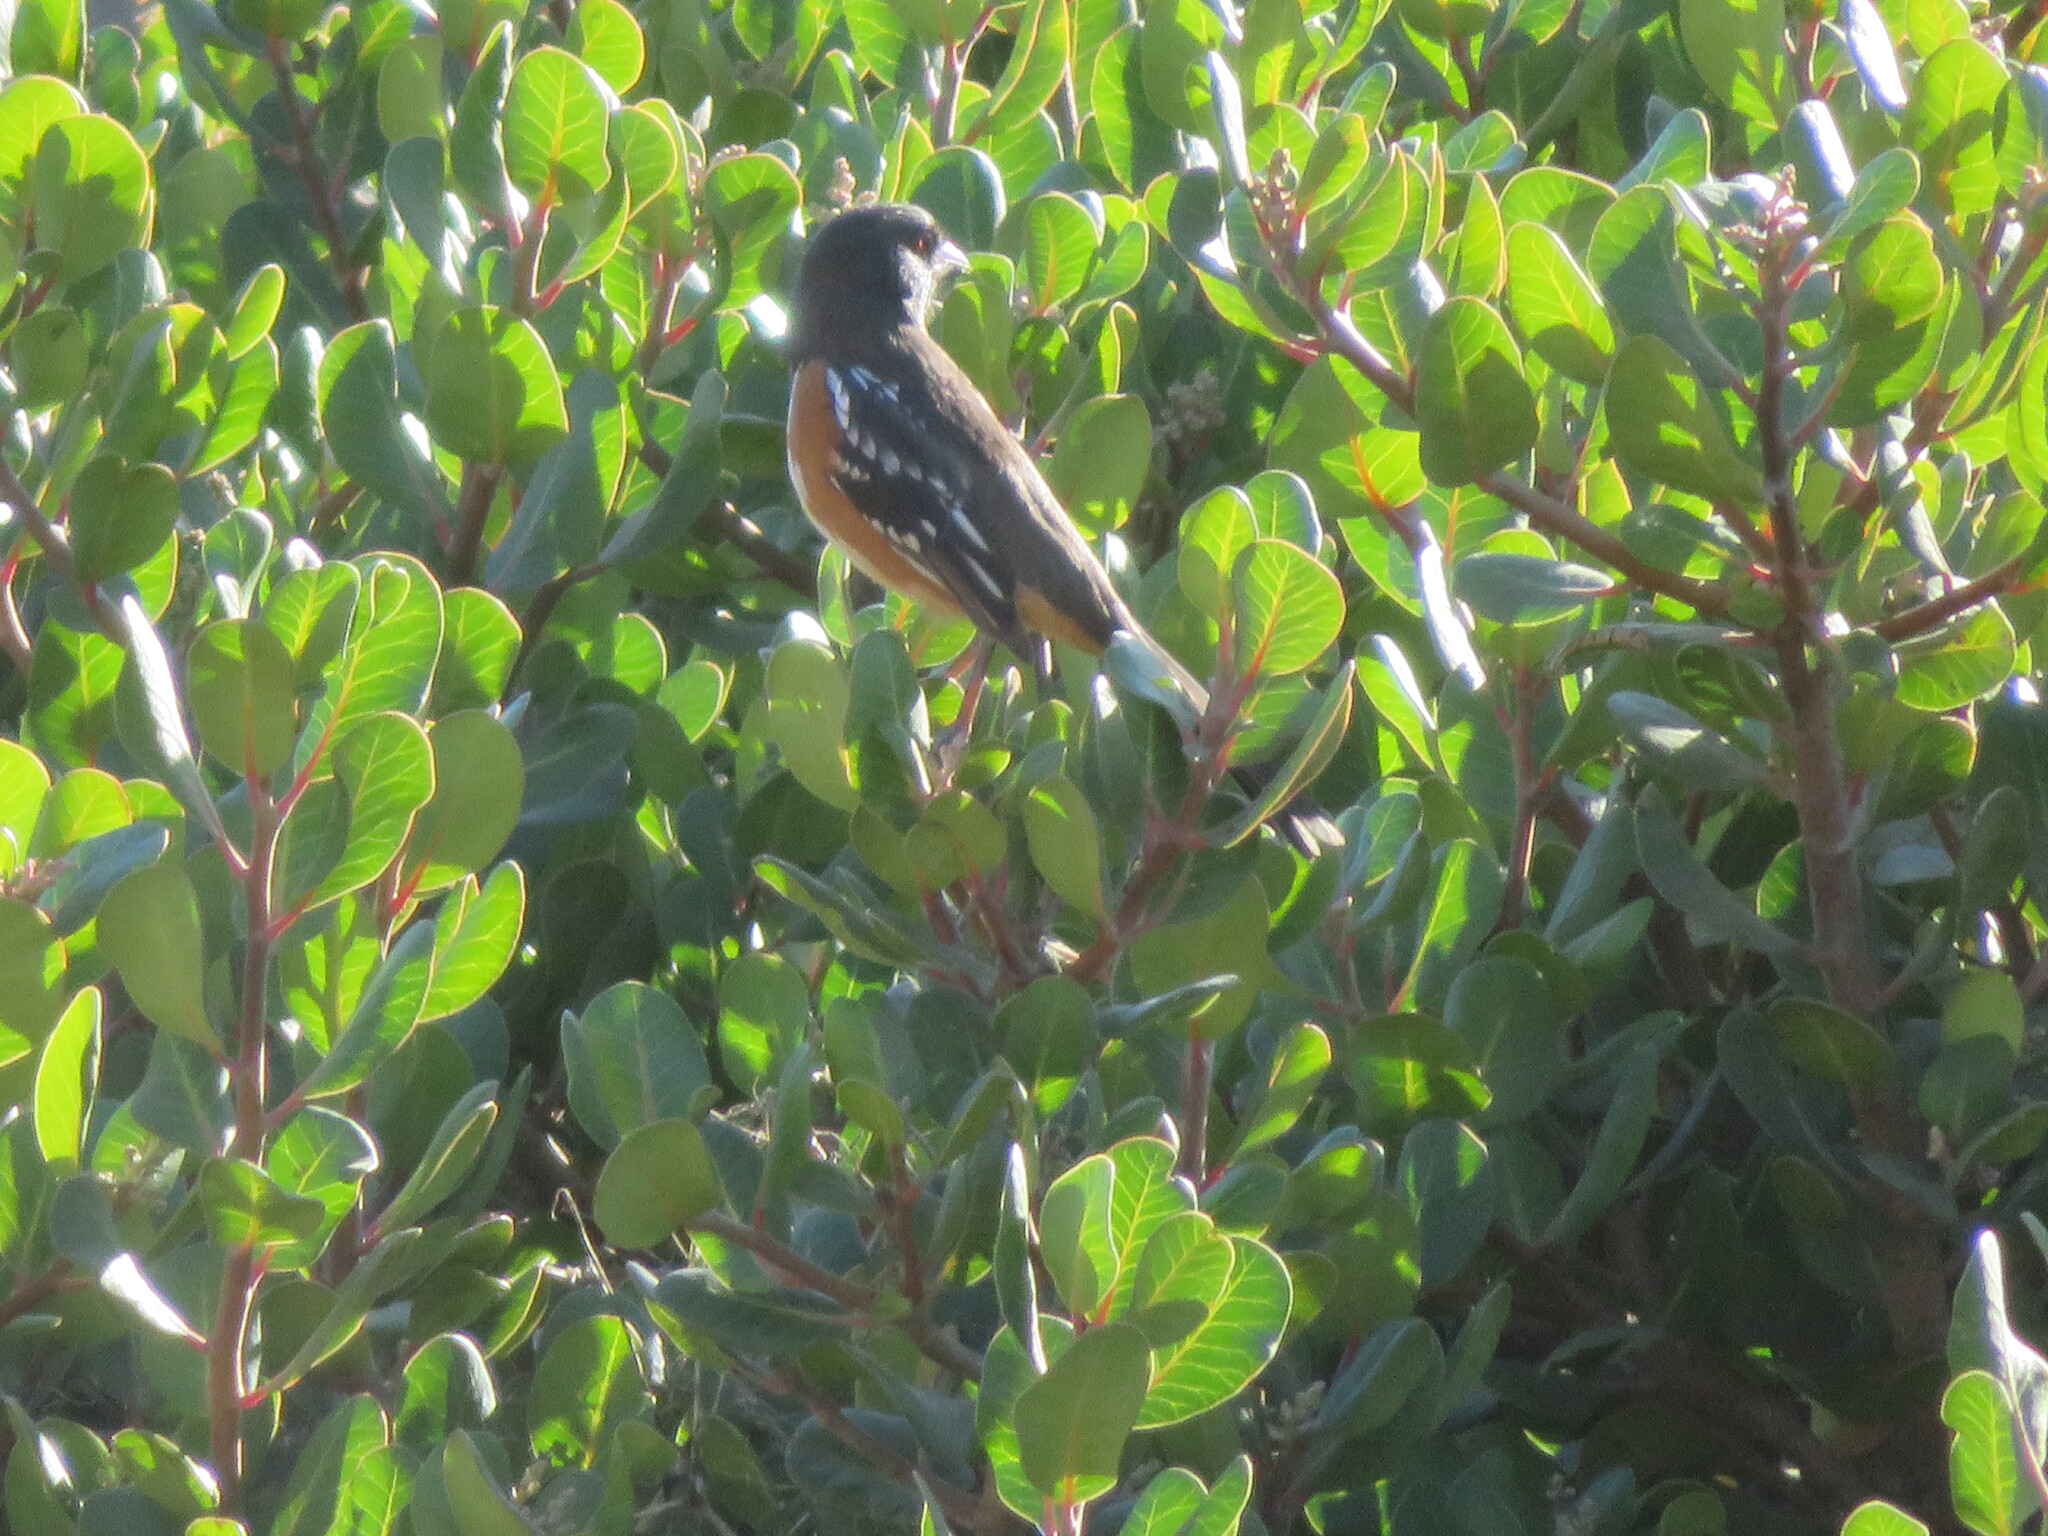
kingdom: Animalia
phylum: Chordata
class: Aves
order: Passeriformes
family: Passerellidae
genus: Pipilo
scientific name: Pipilo maculatus
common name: Spotted towhee
